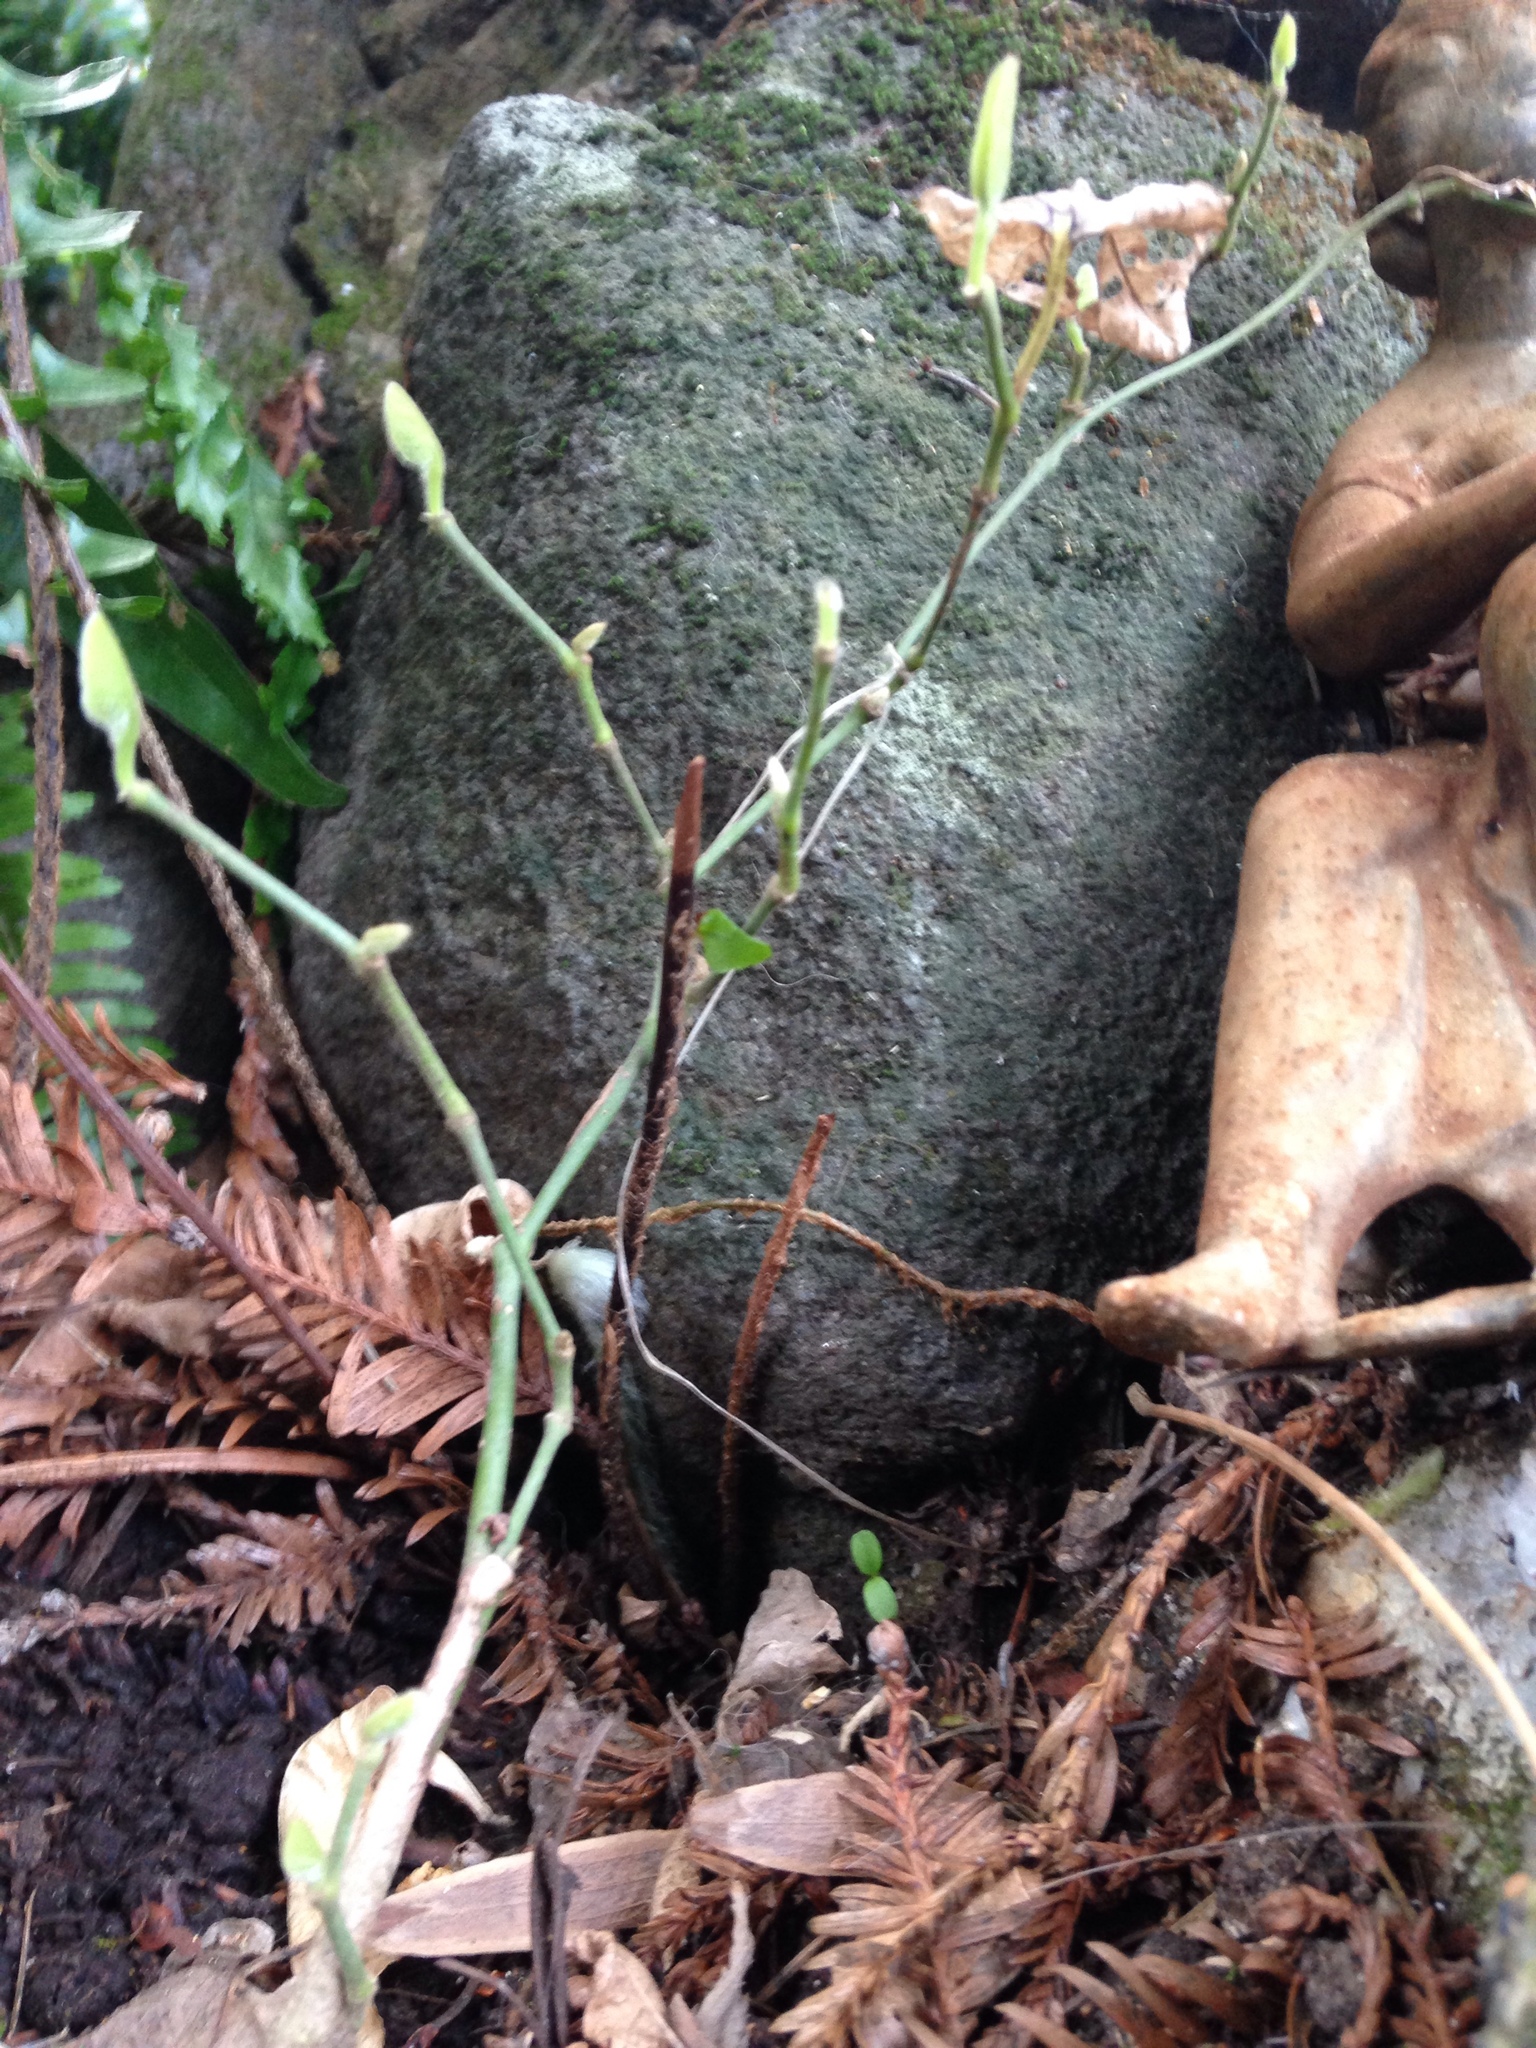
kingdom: Plantae
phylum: Tracheophyta
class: Magnoliopsida
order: Piperales
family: Aristolochiaceae
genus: Isotrema
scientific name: Isotrema californicum
